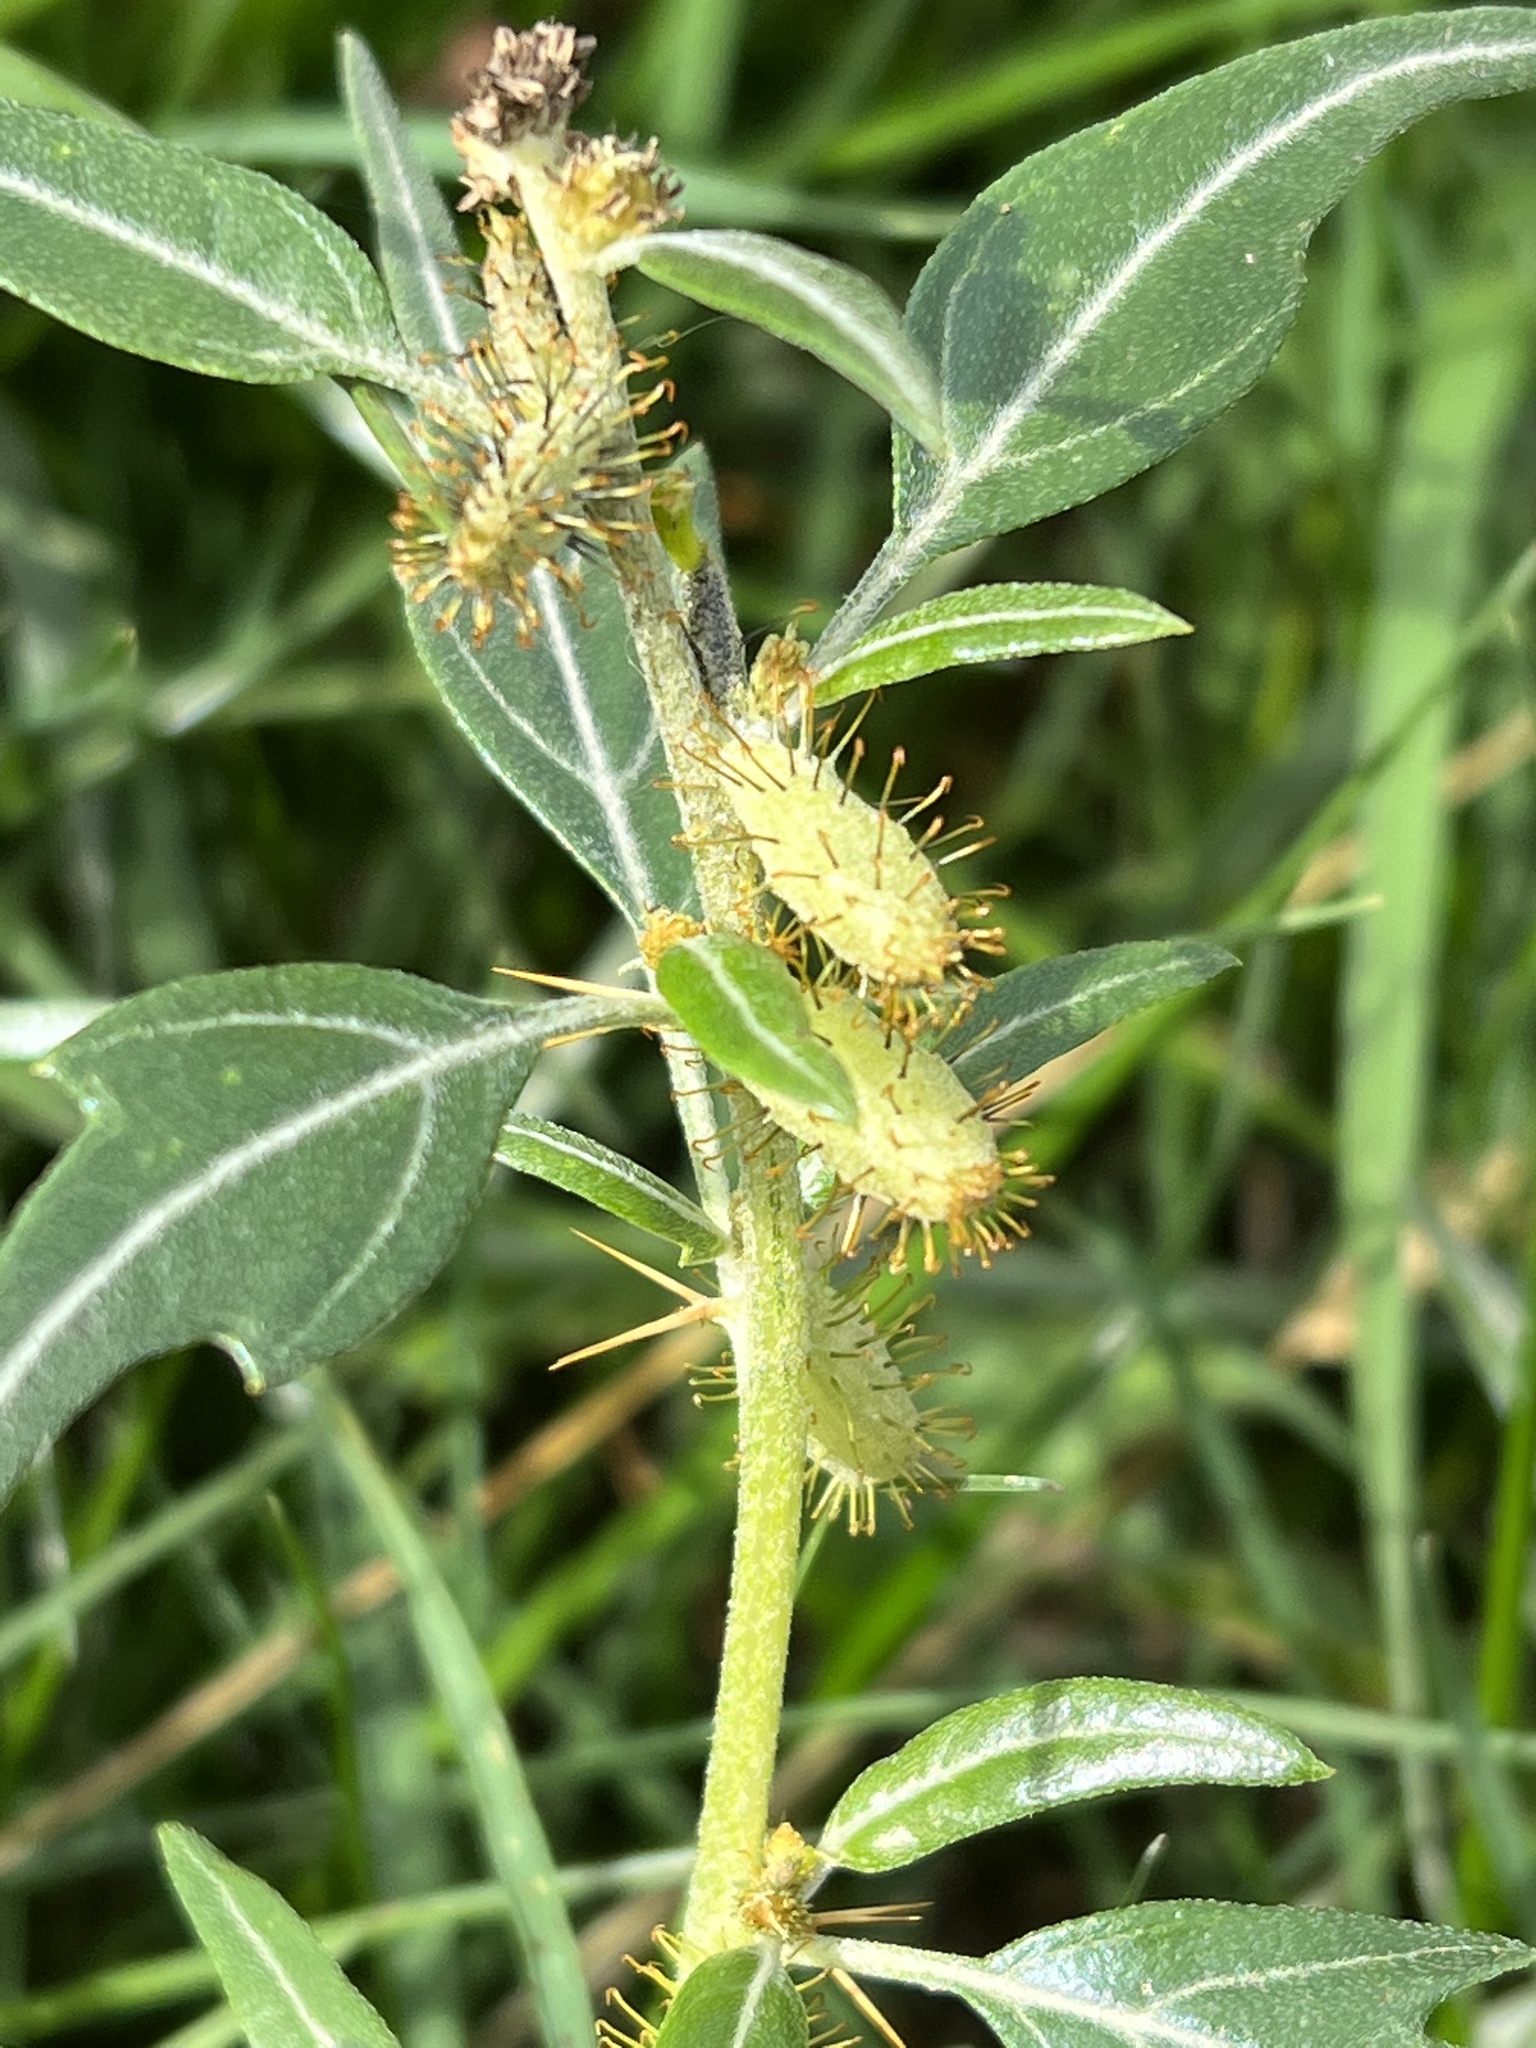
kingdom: Plantae
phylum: Tracheophyta
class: Magnoliopsida
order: Asterales
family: Asteraceae
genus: Xanthium
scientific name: Xanthium spinosum
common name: Spiny cocklebur
